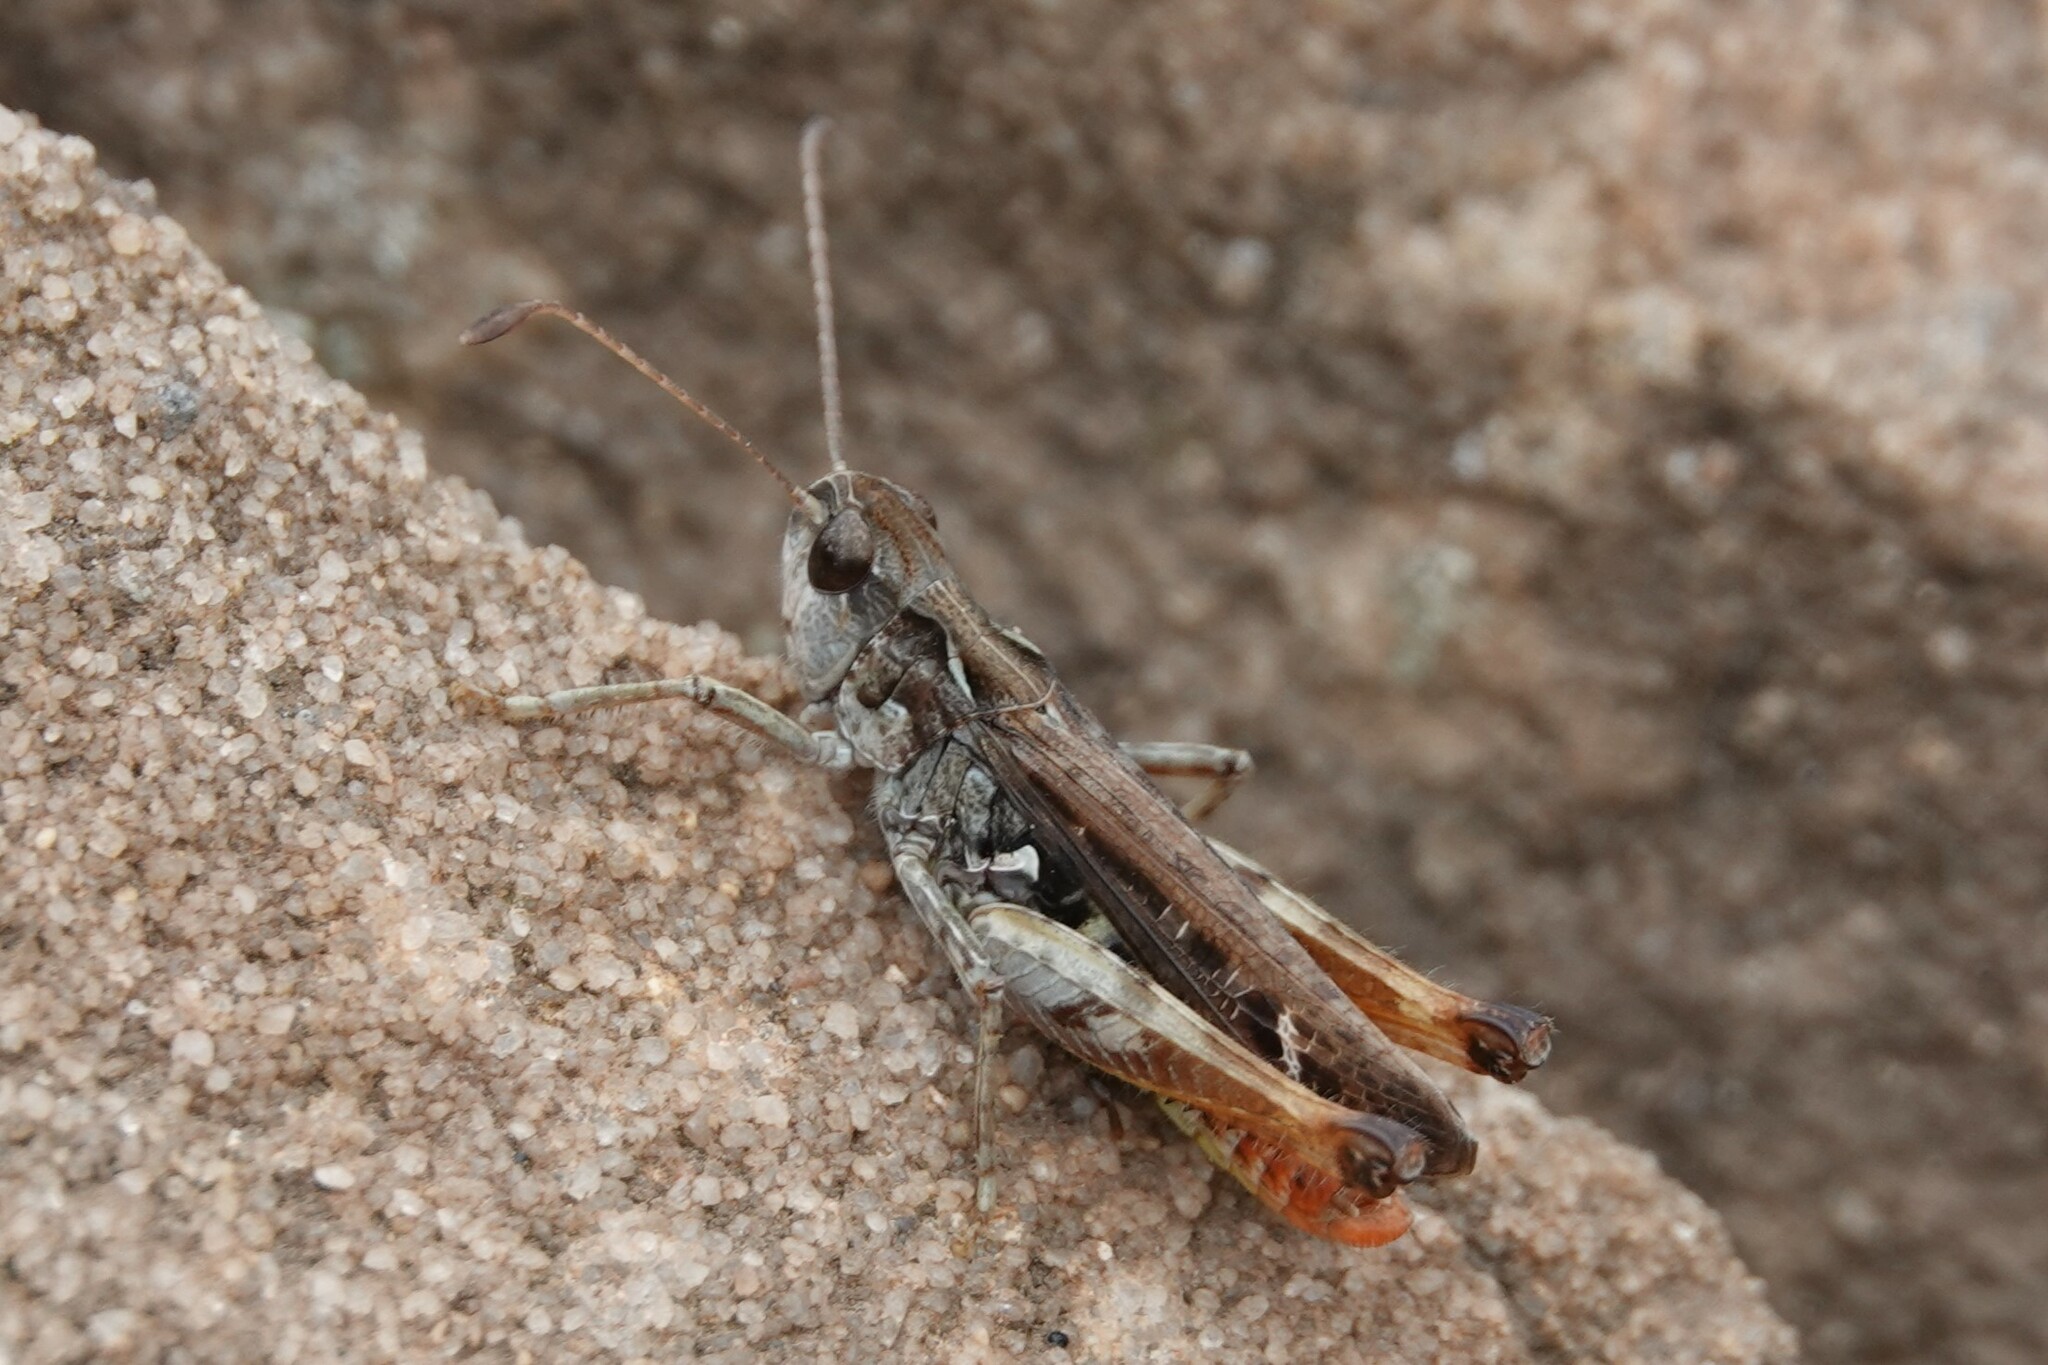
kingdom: Animalia
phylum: Arthropoda
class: Insecta
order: Orthoptera
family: Acrididae
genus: Myrmeleotettix
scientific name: Myrmeleotettix maculatus
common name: Mottled grasshopper
